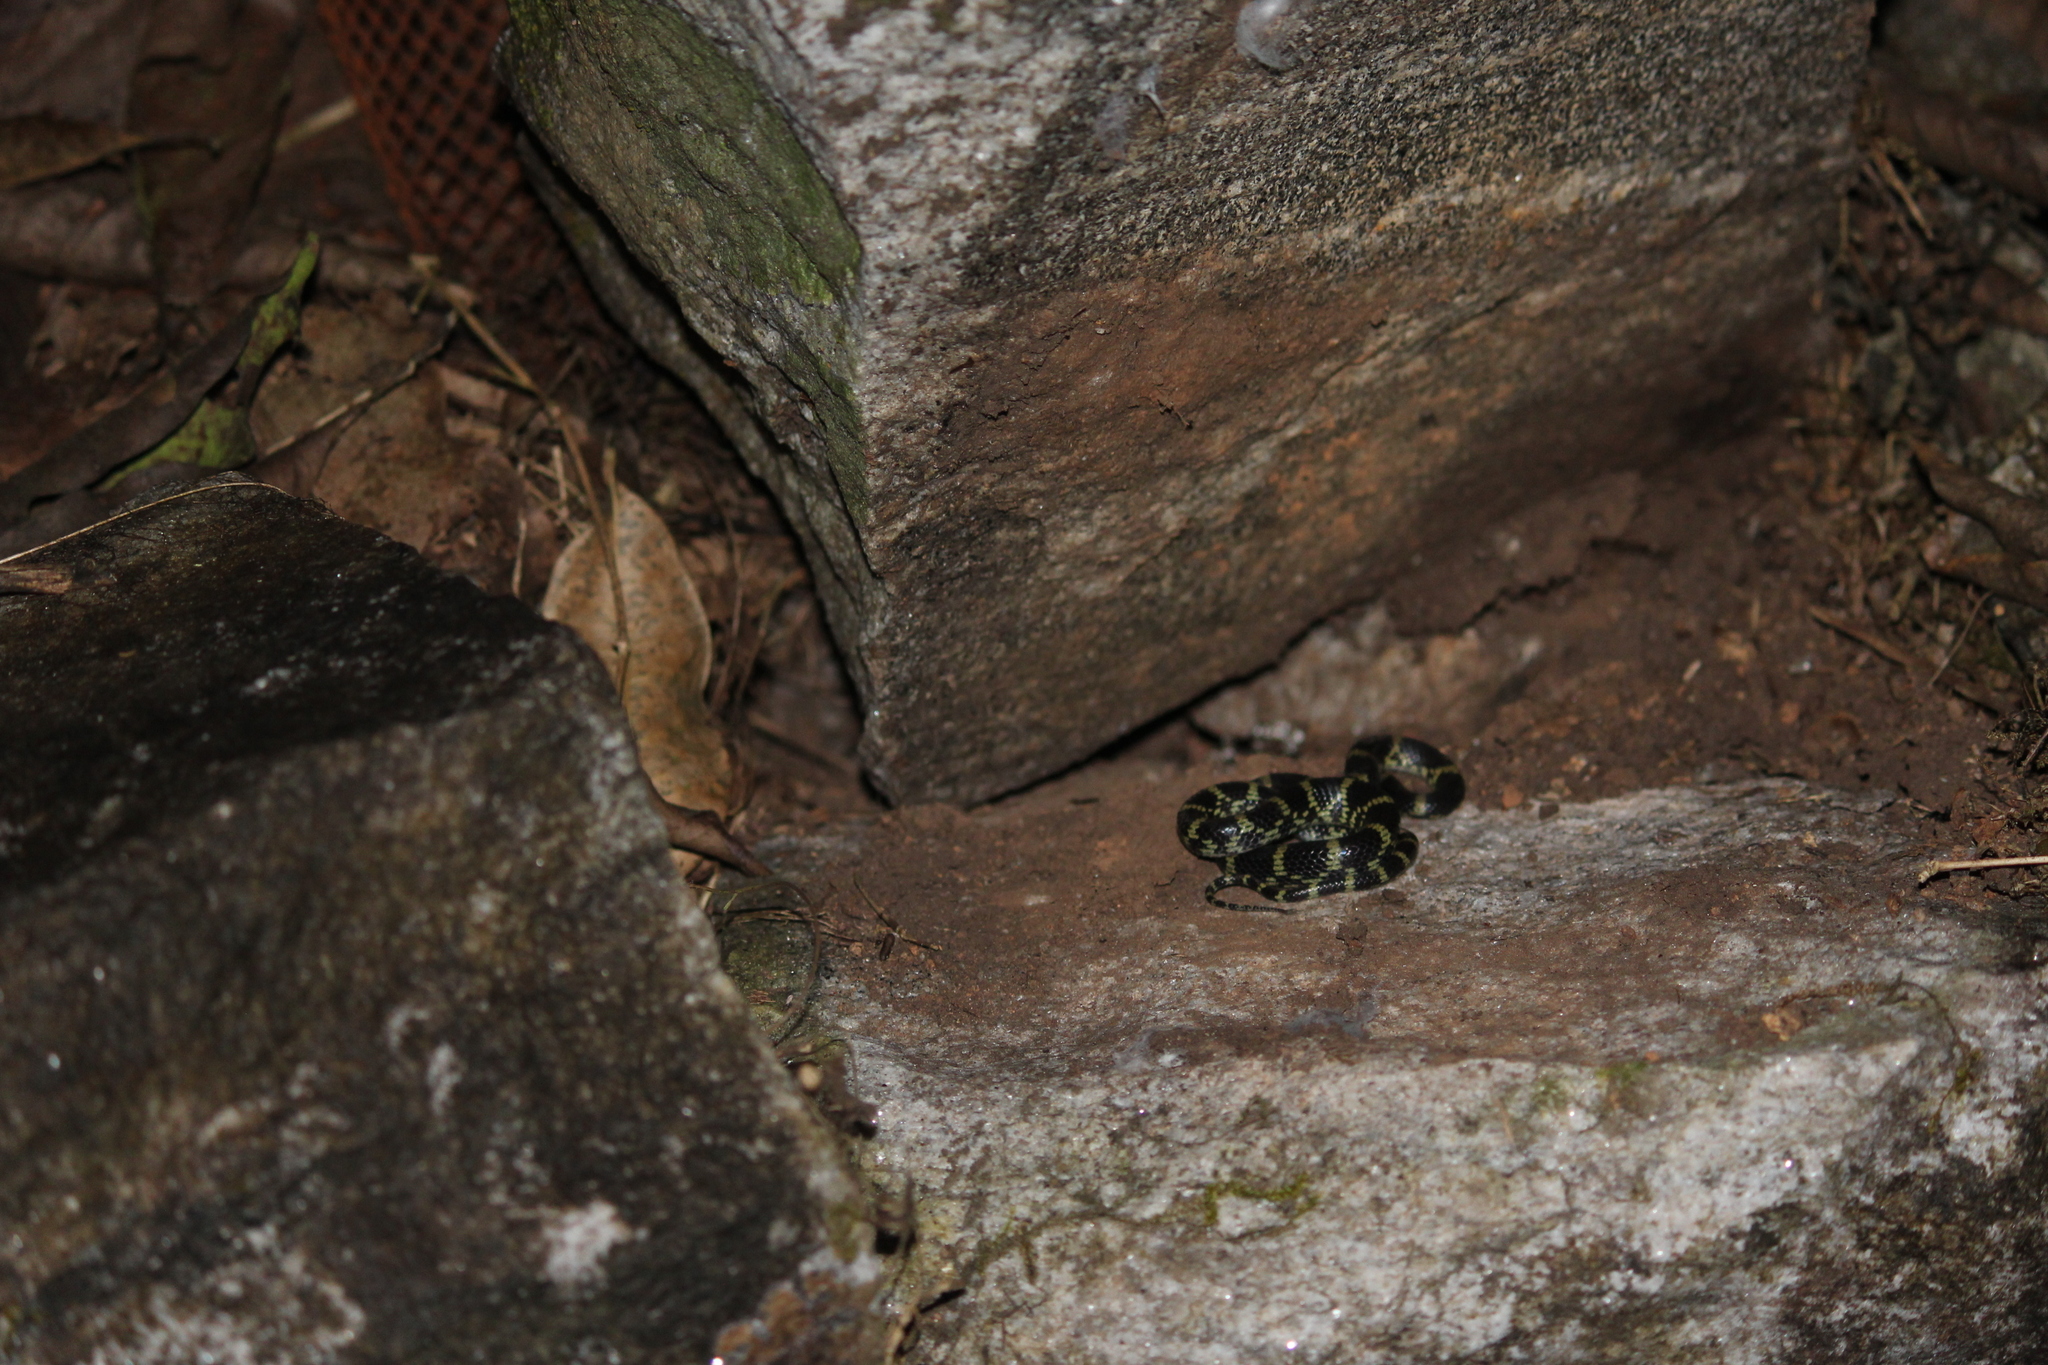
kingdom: Animalia
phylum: Chordata
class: Squamata
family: Colubridae
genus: Lycodon
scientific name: Lycodon travancoricus
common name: Travancore wolf snake
